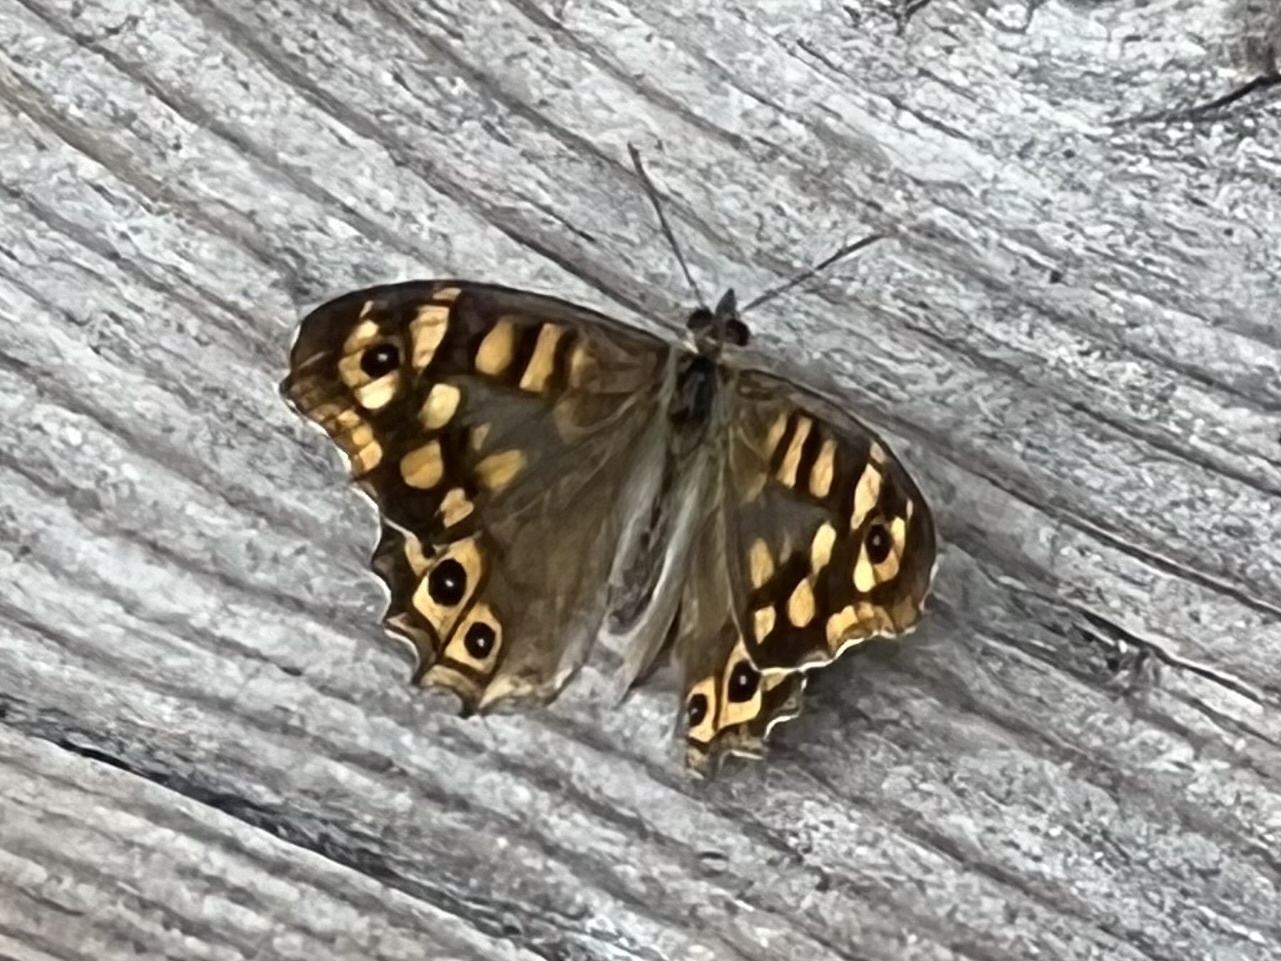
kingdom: Animalia
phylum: Arthropoda
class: Insecta
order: Lepidoptera
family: Nymphalidae
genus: Pararge
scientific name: Pararge aegeria
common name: Speckled wood
